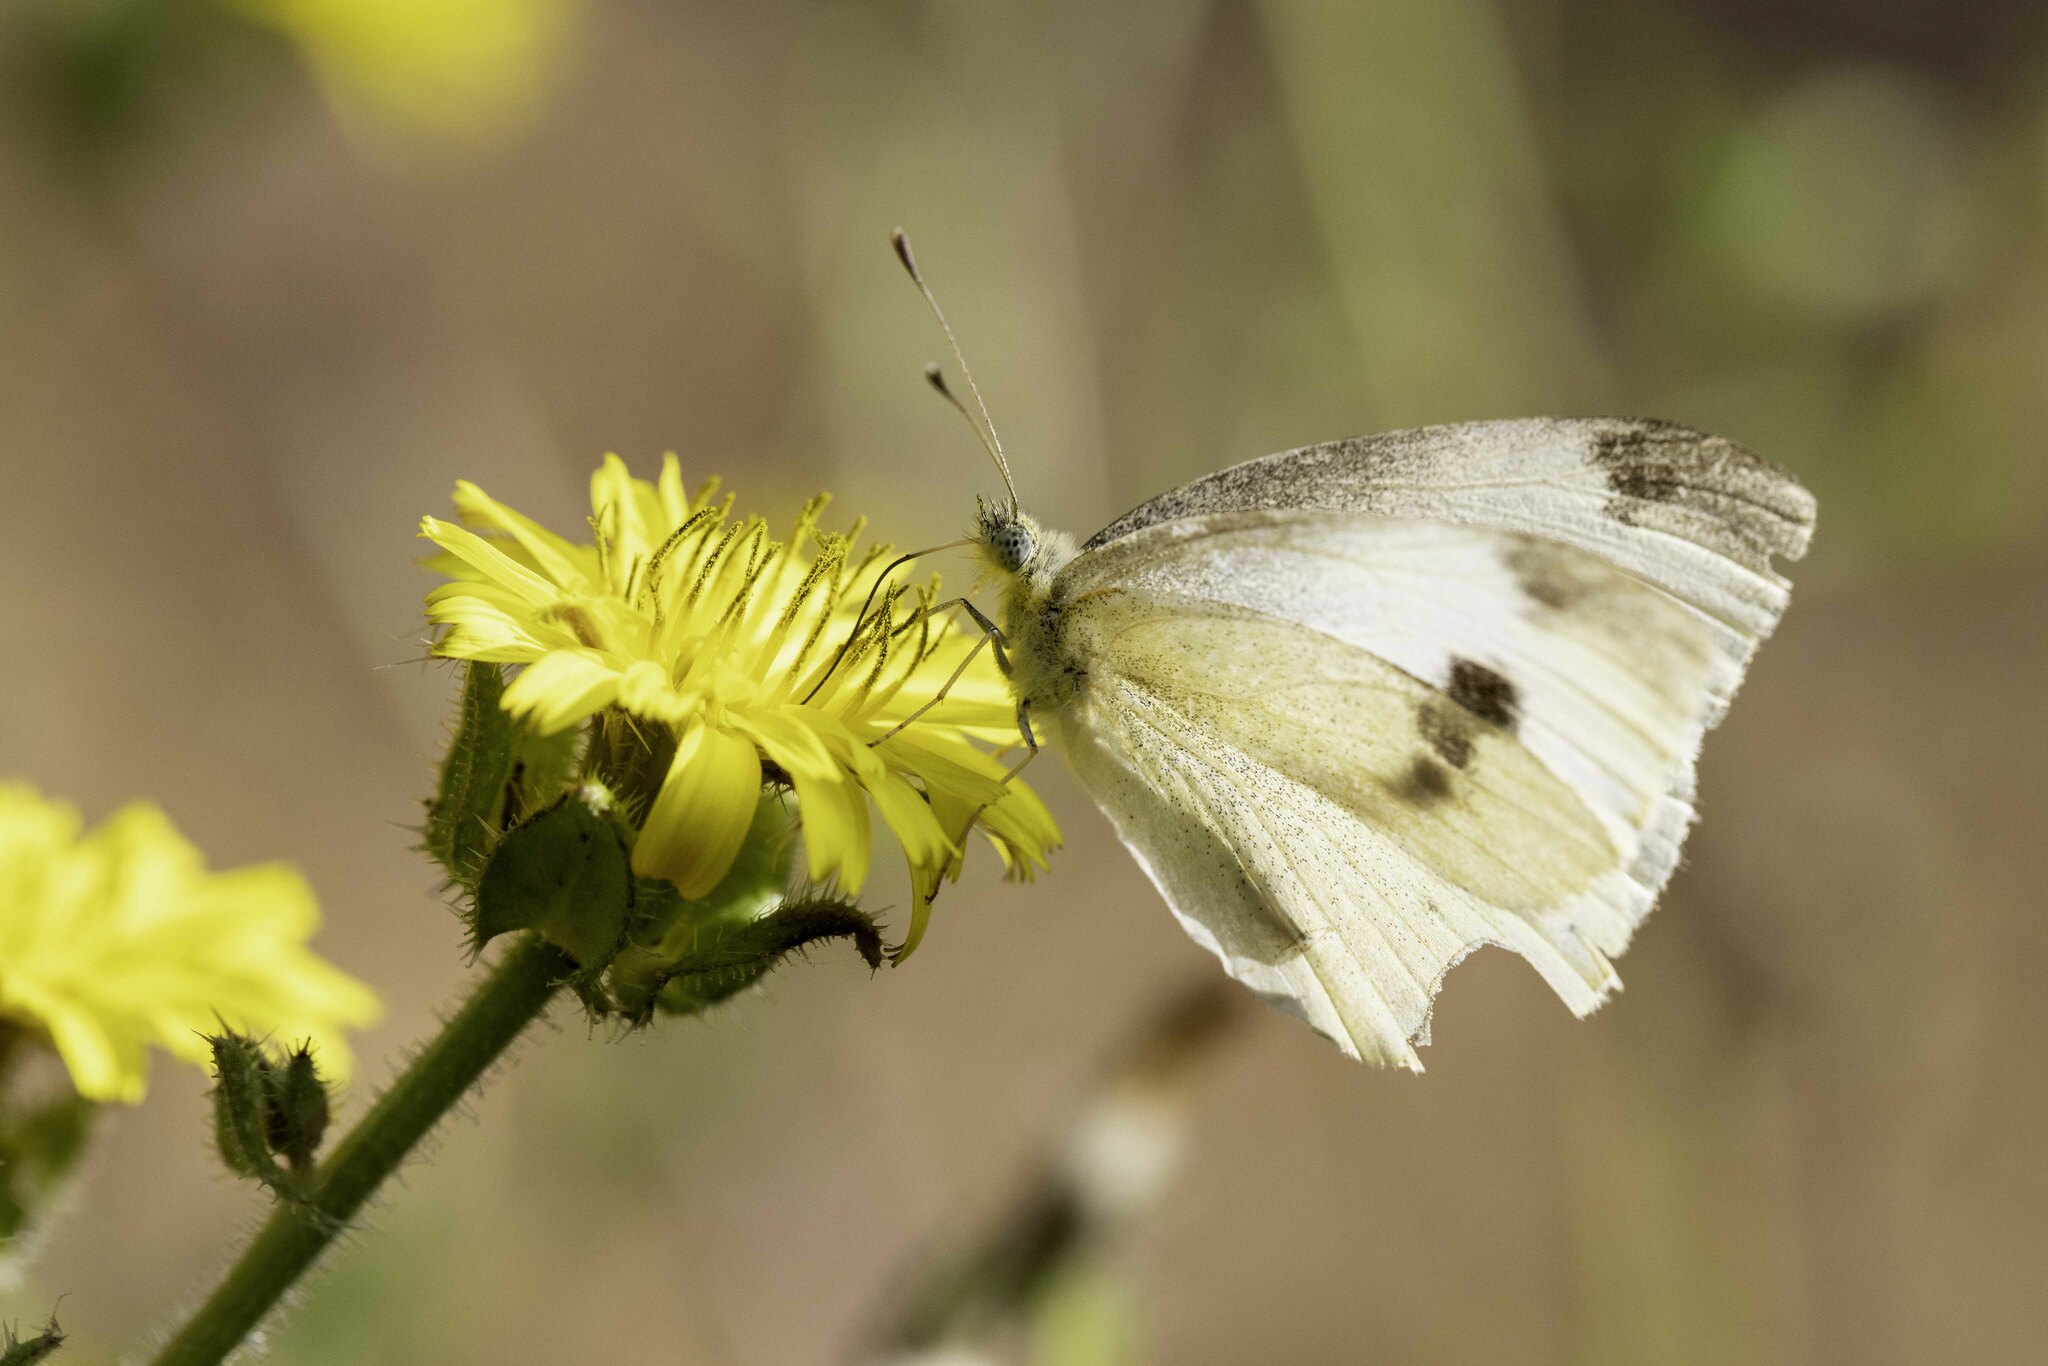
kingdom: Animalia
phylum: Arthropoda
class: Insecta
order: Lepidoptera
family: Pieridae
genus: Pieris
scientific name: Pieris rapae
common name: Small white
